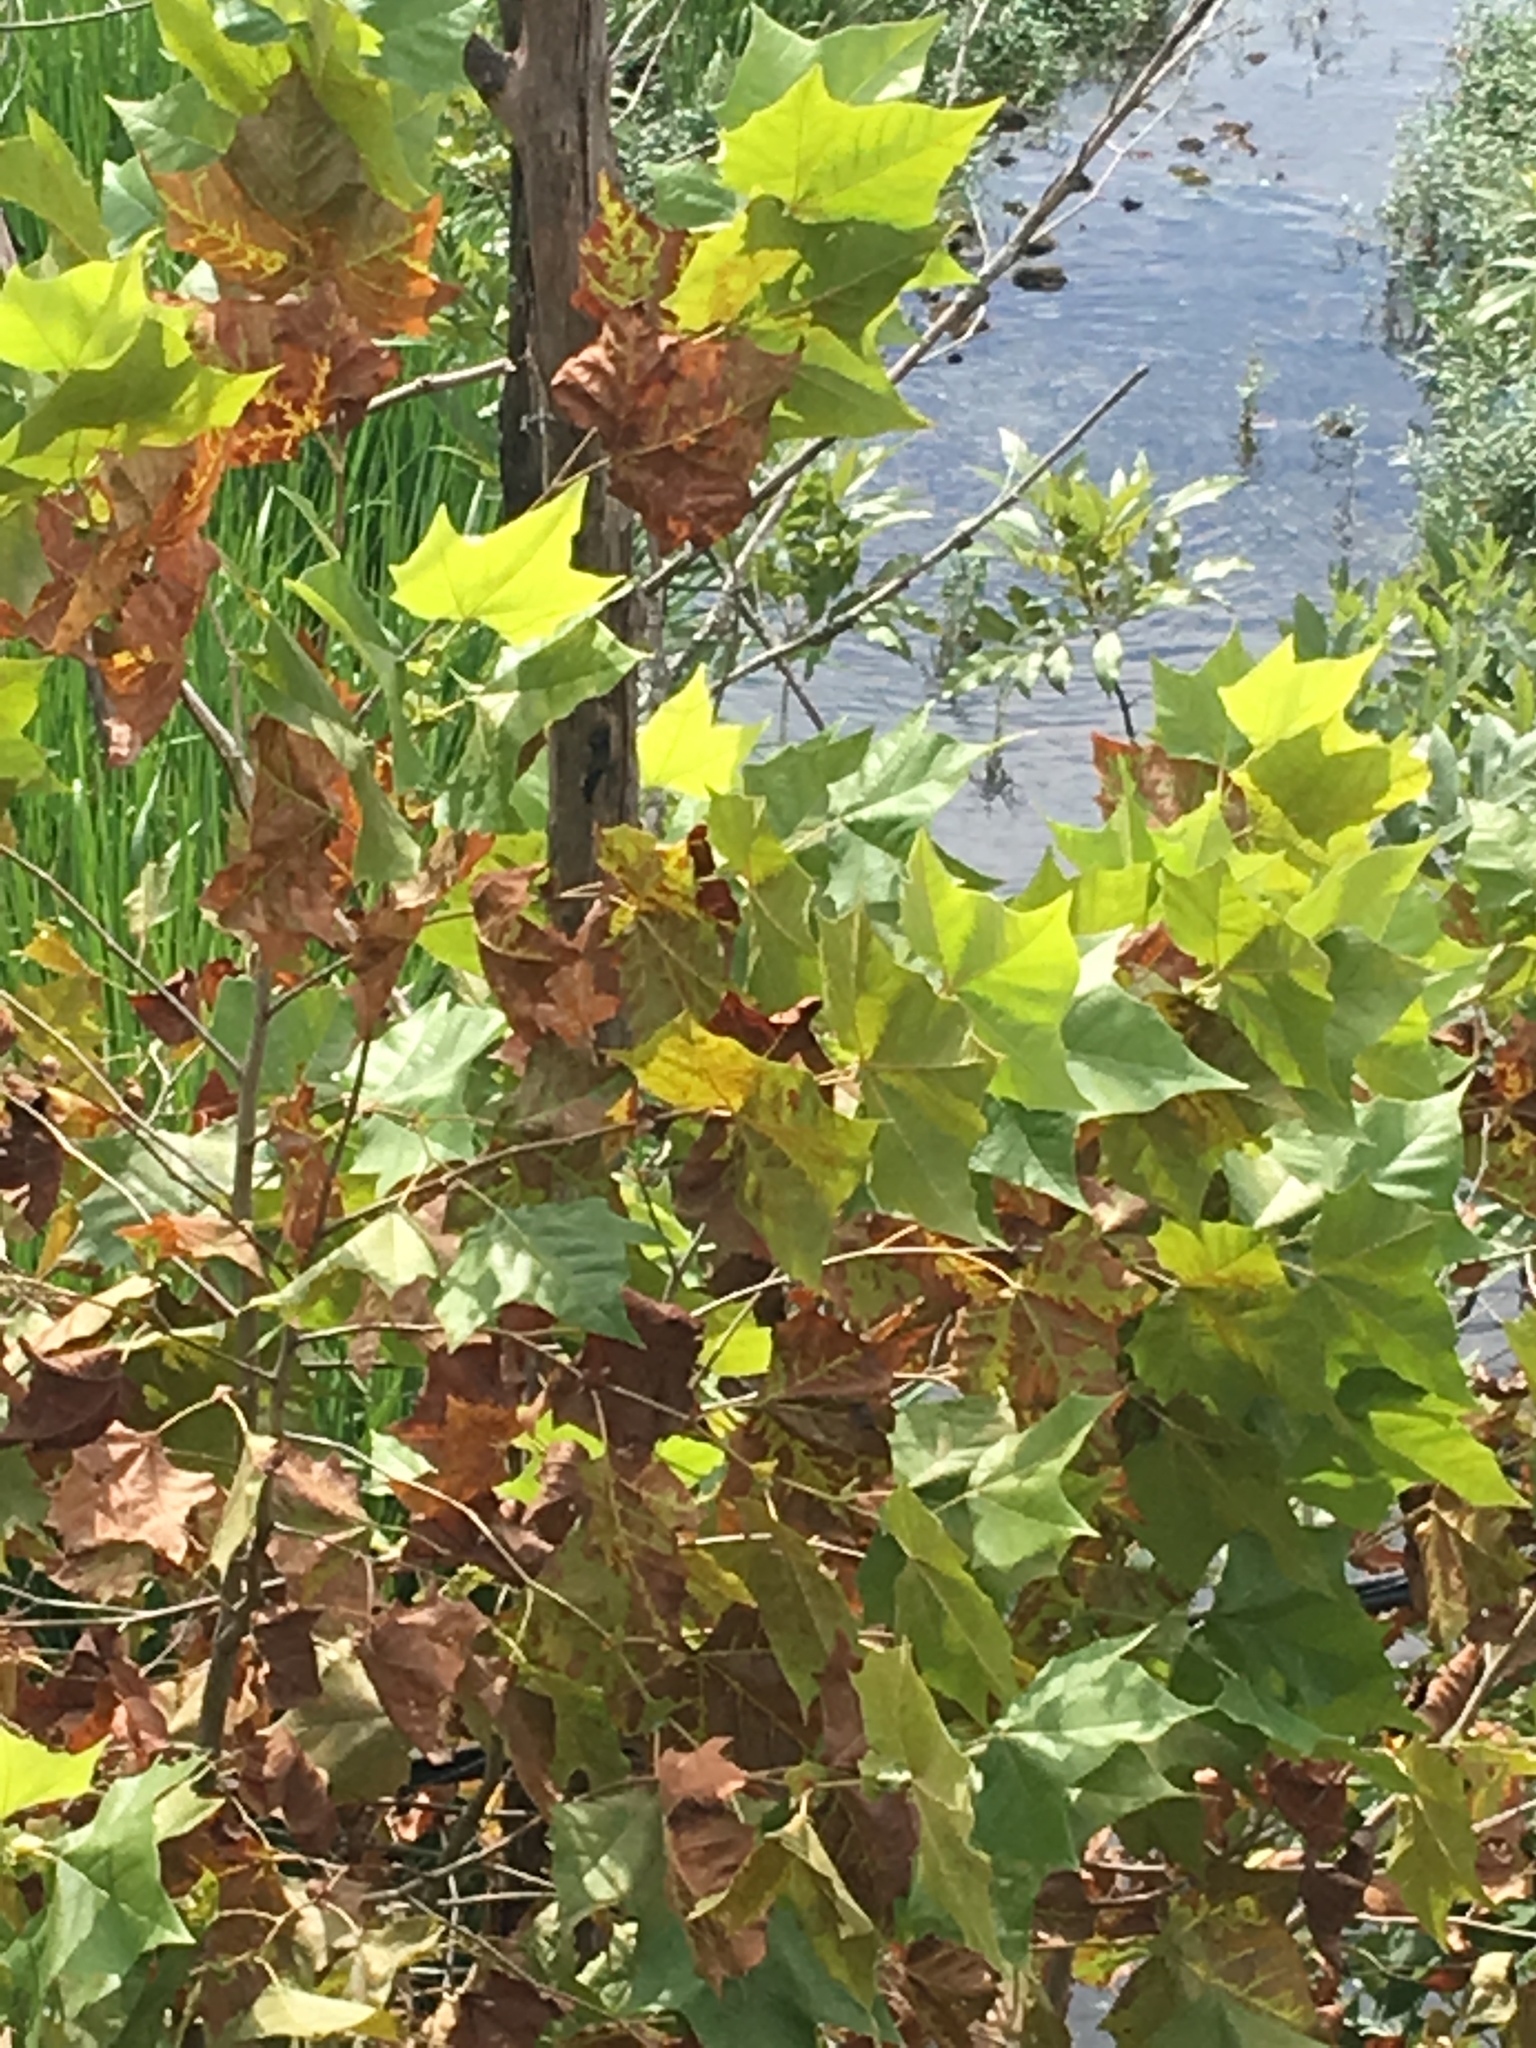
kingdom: Plantae
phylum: Tracheophyta
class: Magnoliopsida
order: Proteales
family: Platanaceae
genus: Platanus
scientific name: Platanus occidentalis
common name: American sycamore
